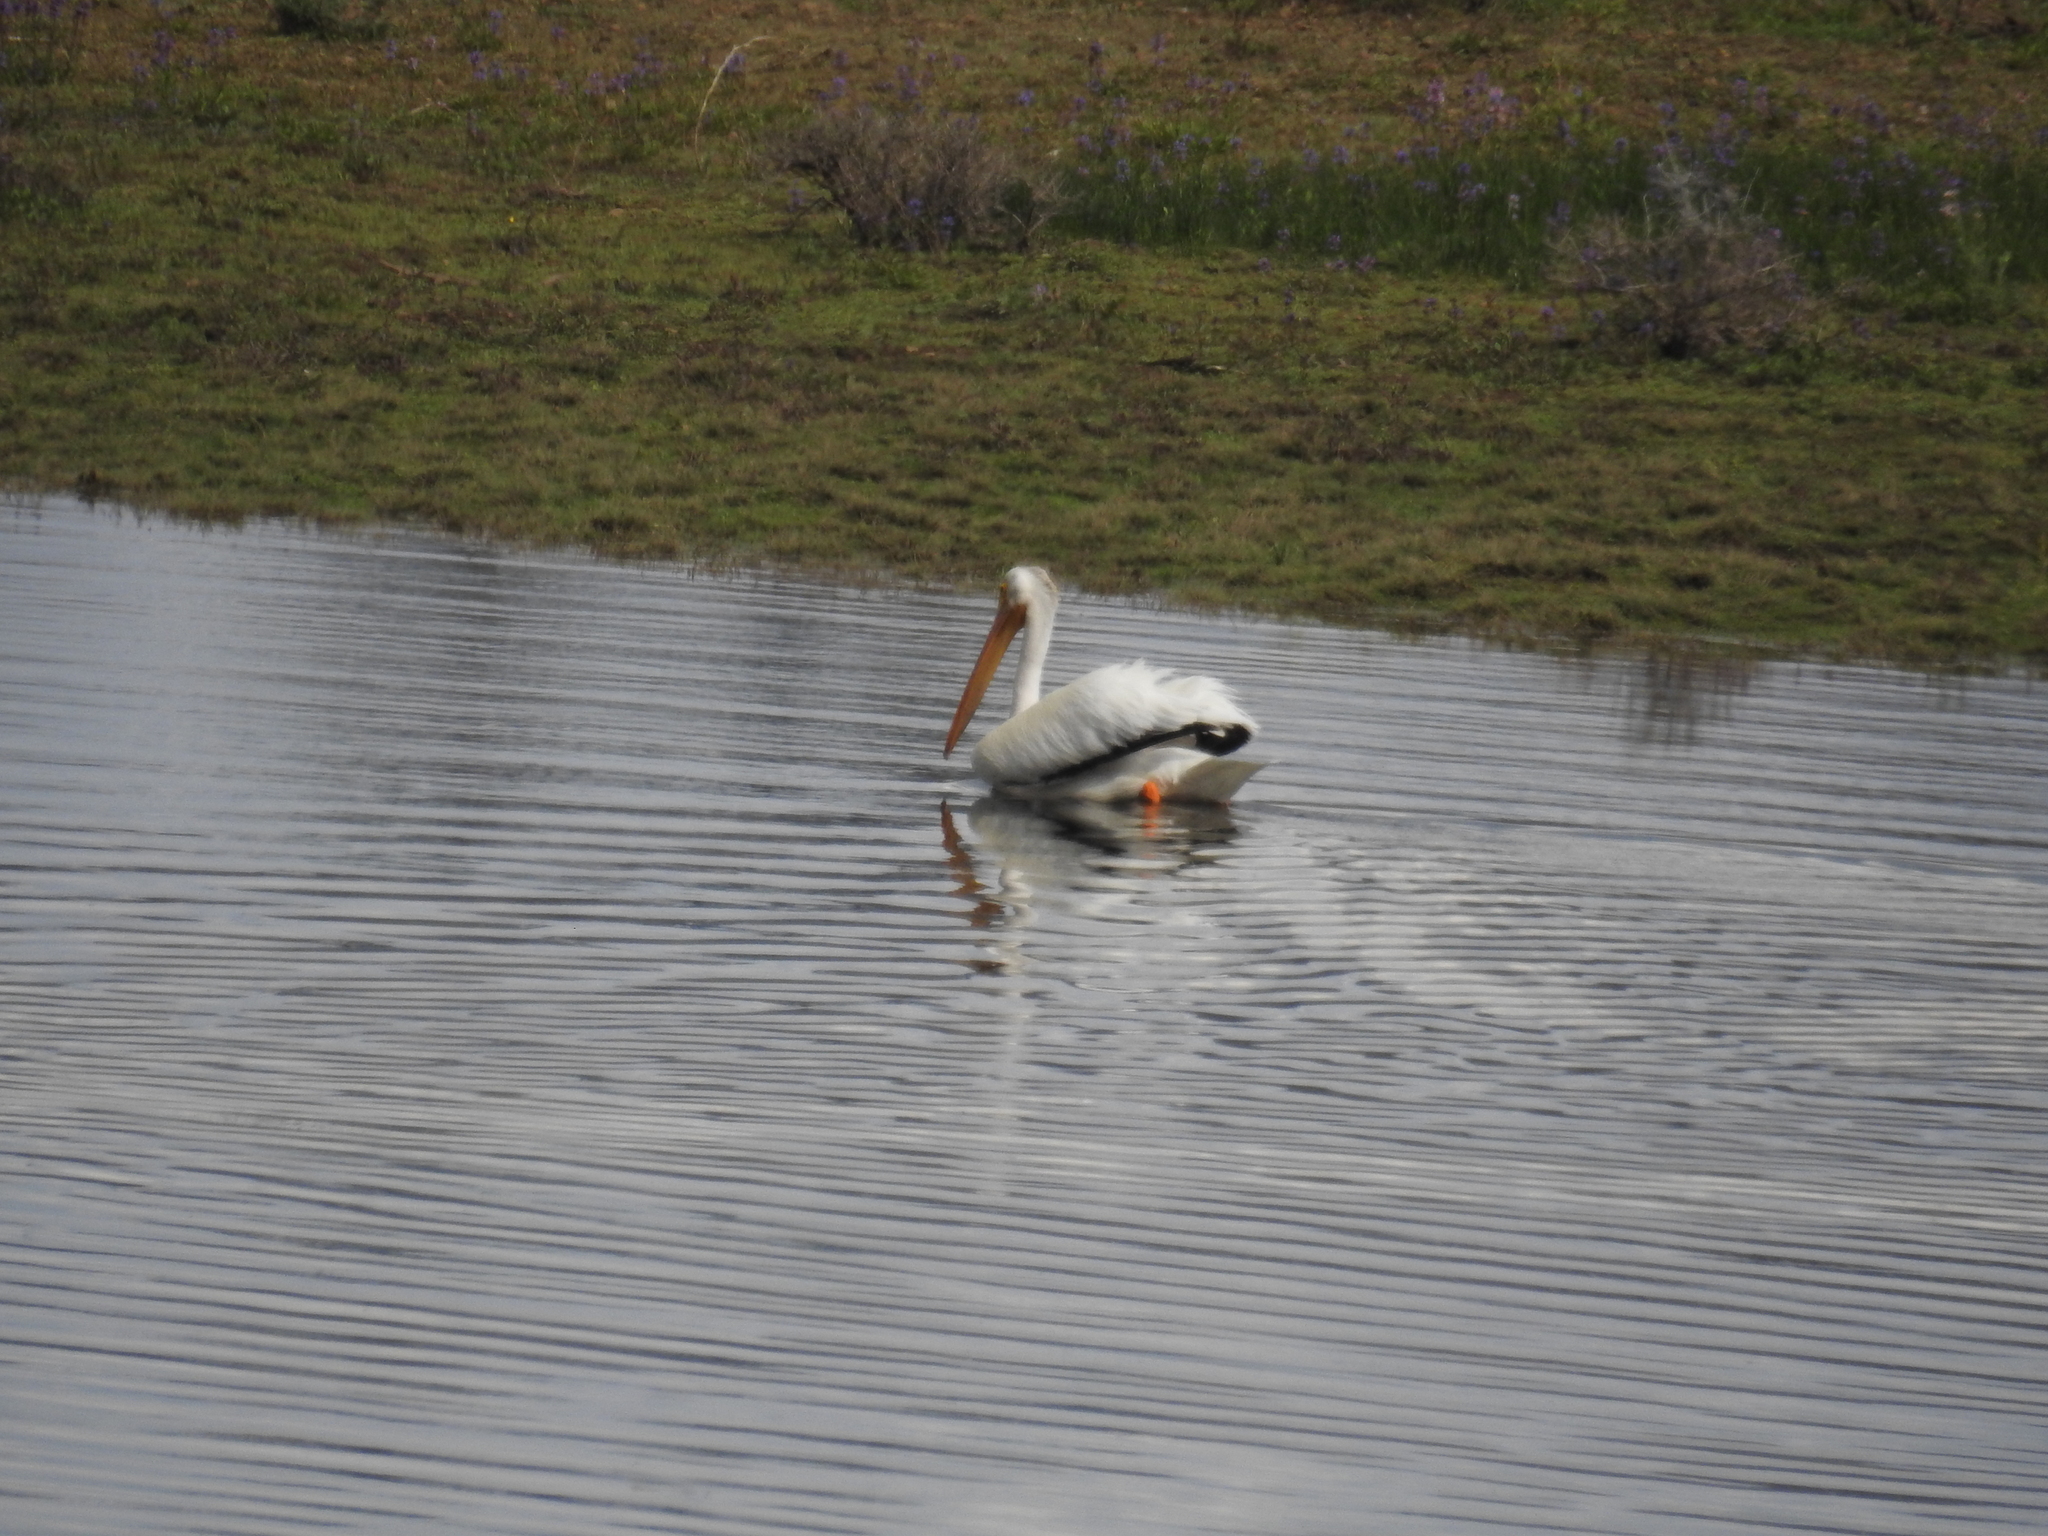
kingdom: Animalia
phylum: Chordata
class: Aves
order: Pelecaniformes
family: Pelecanidae
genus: Pelecanus
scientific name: Pelecanus erythrorhynchos
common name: American white pelican
